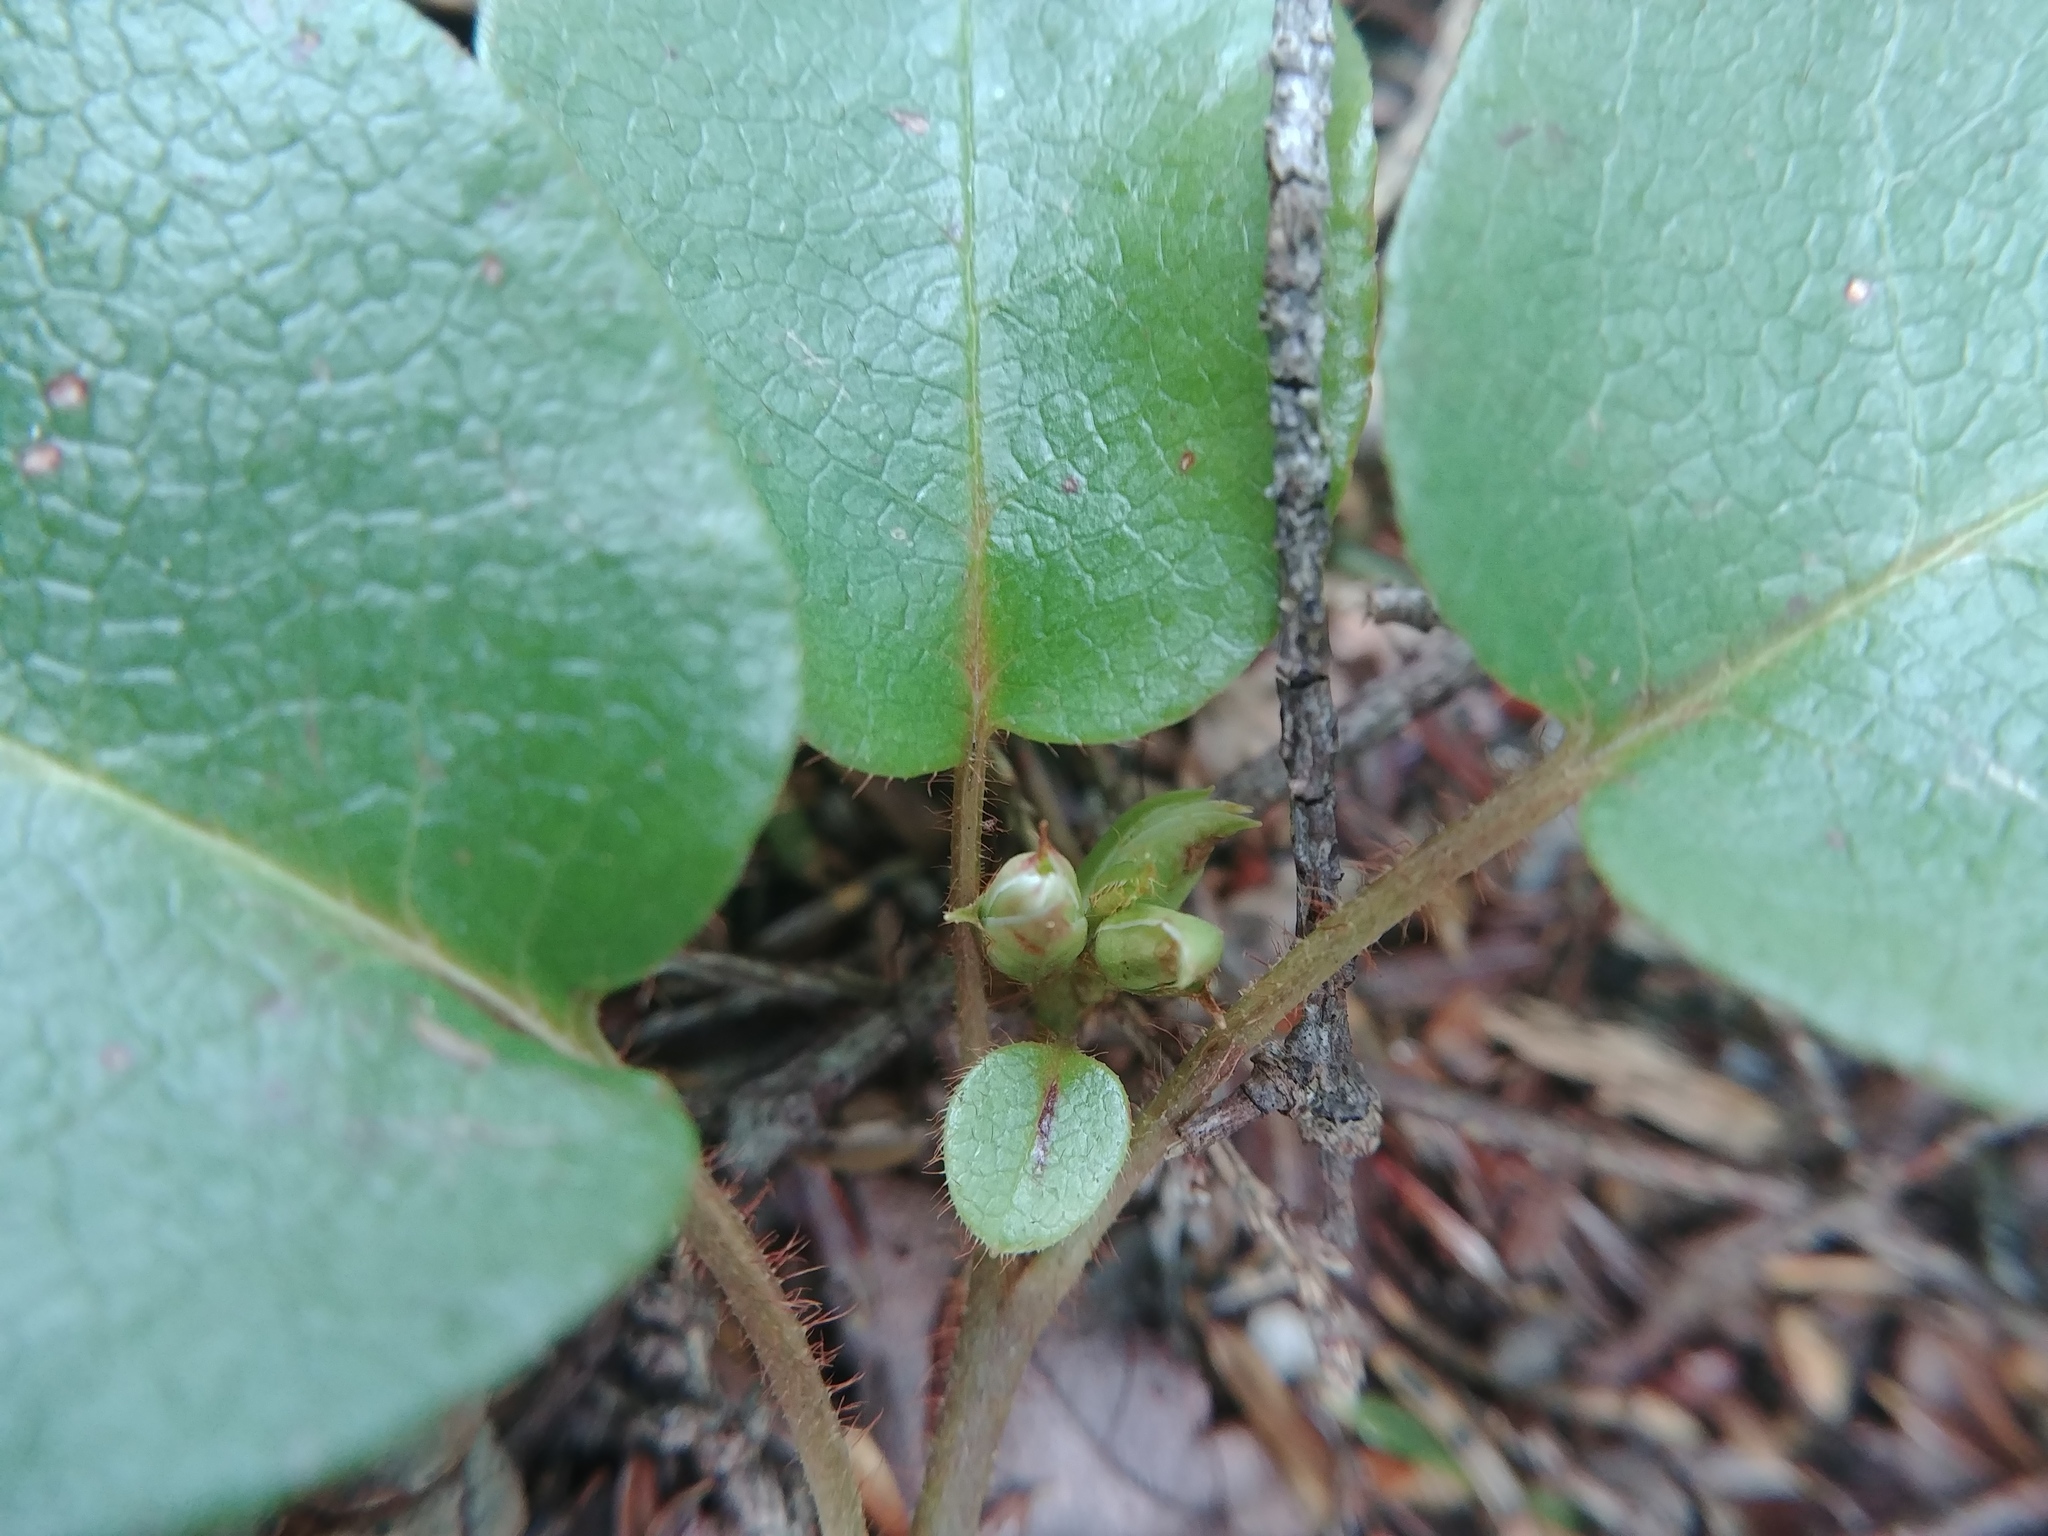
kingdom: Plantae
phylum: Tracheophyta
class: Magnoliopsida
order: Ericales
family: Ericaceae
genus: Epigaea
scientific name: Epigaea repens
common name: Gravelroot
